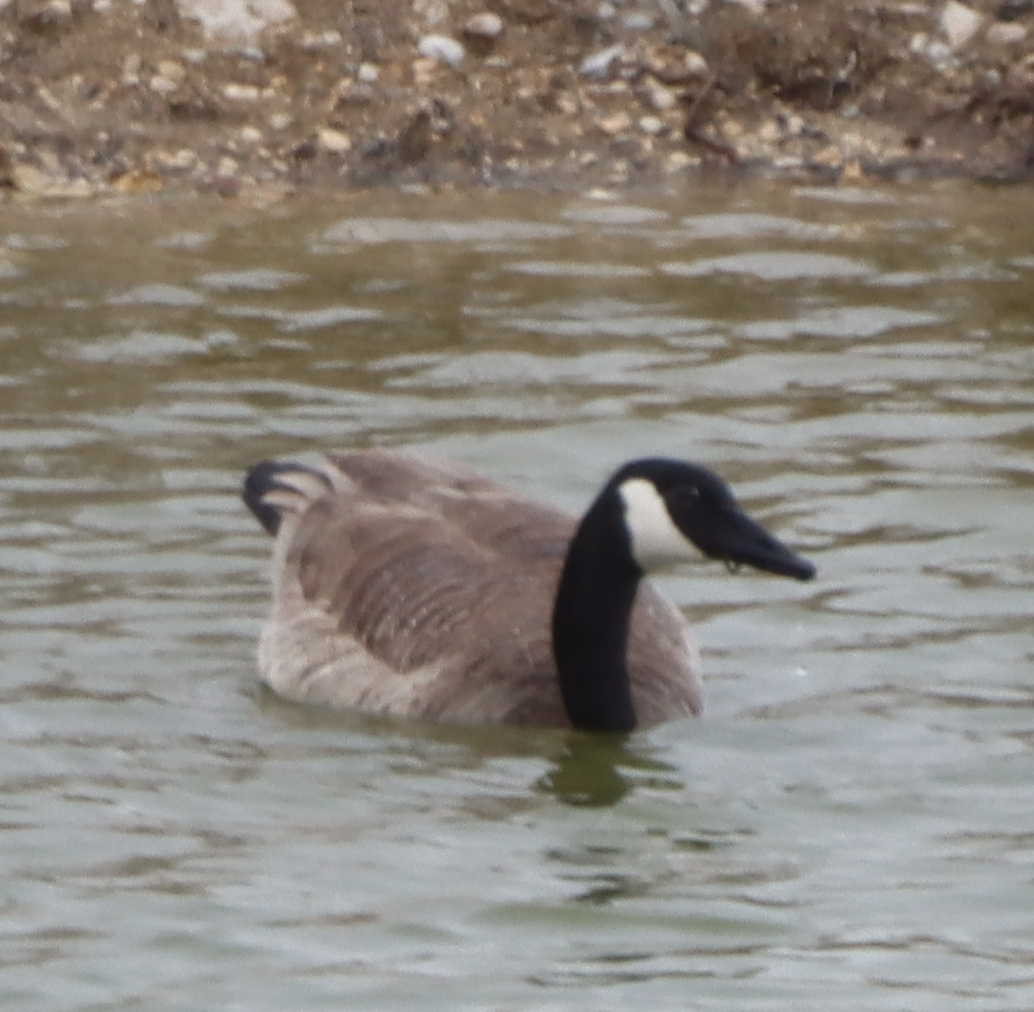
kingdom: Animalia
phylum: Chordata
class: Aves
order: Anseriformes
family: Anatidae
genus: Branta
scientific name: Branta canadensis
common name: Canada goose
